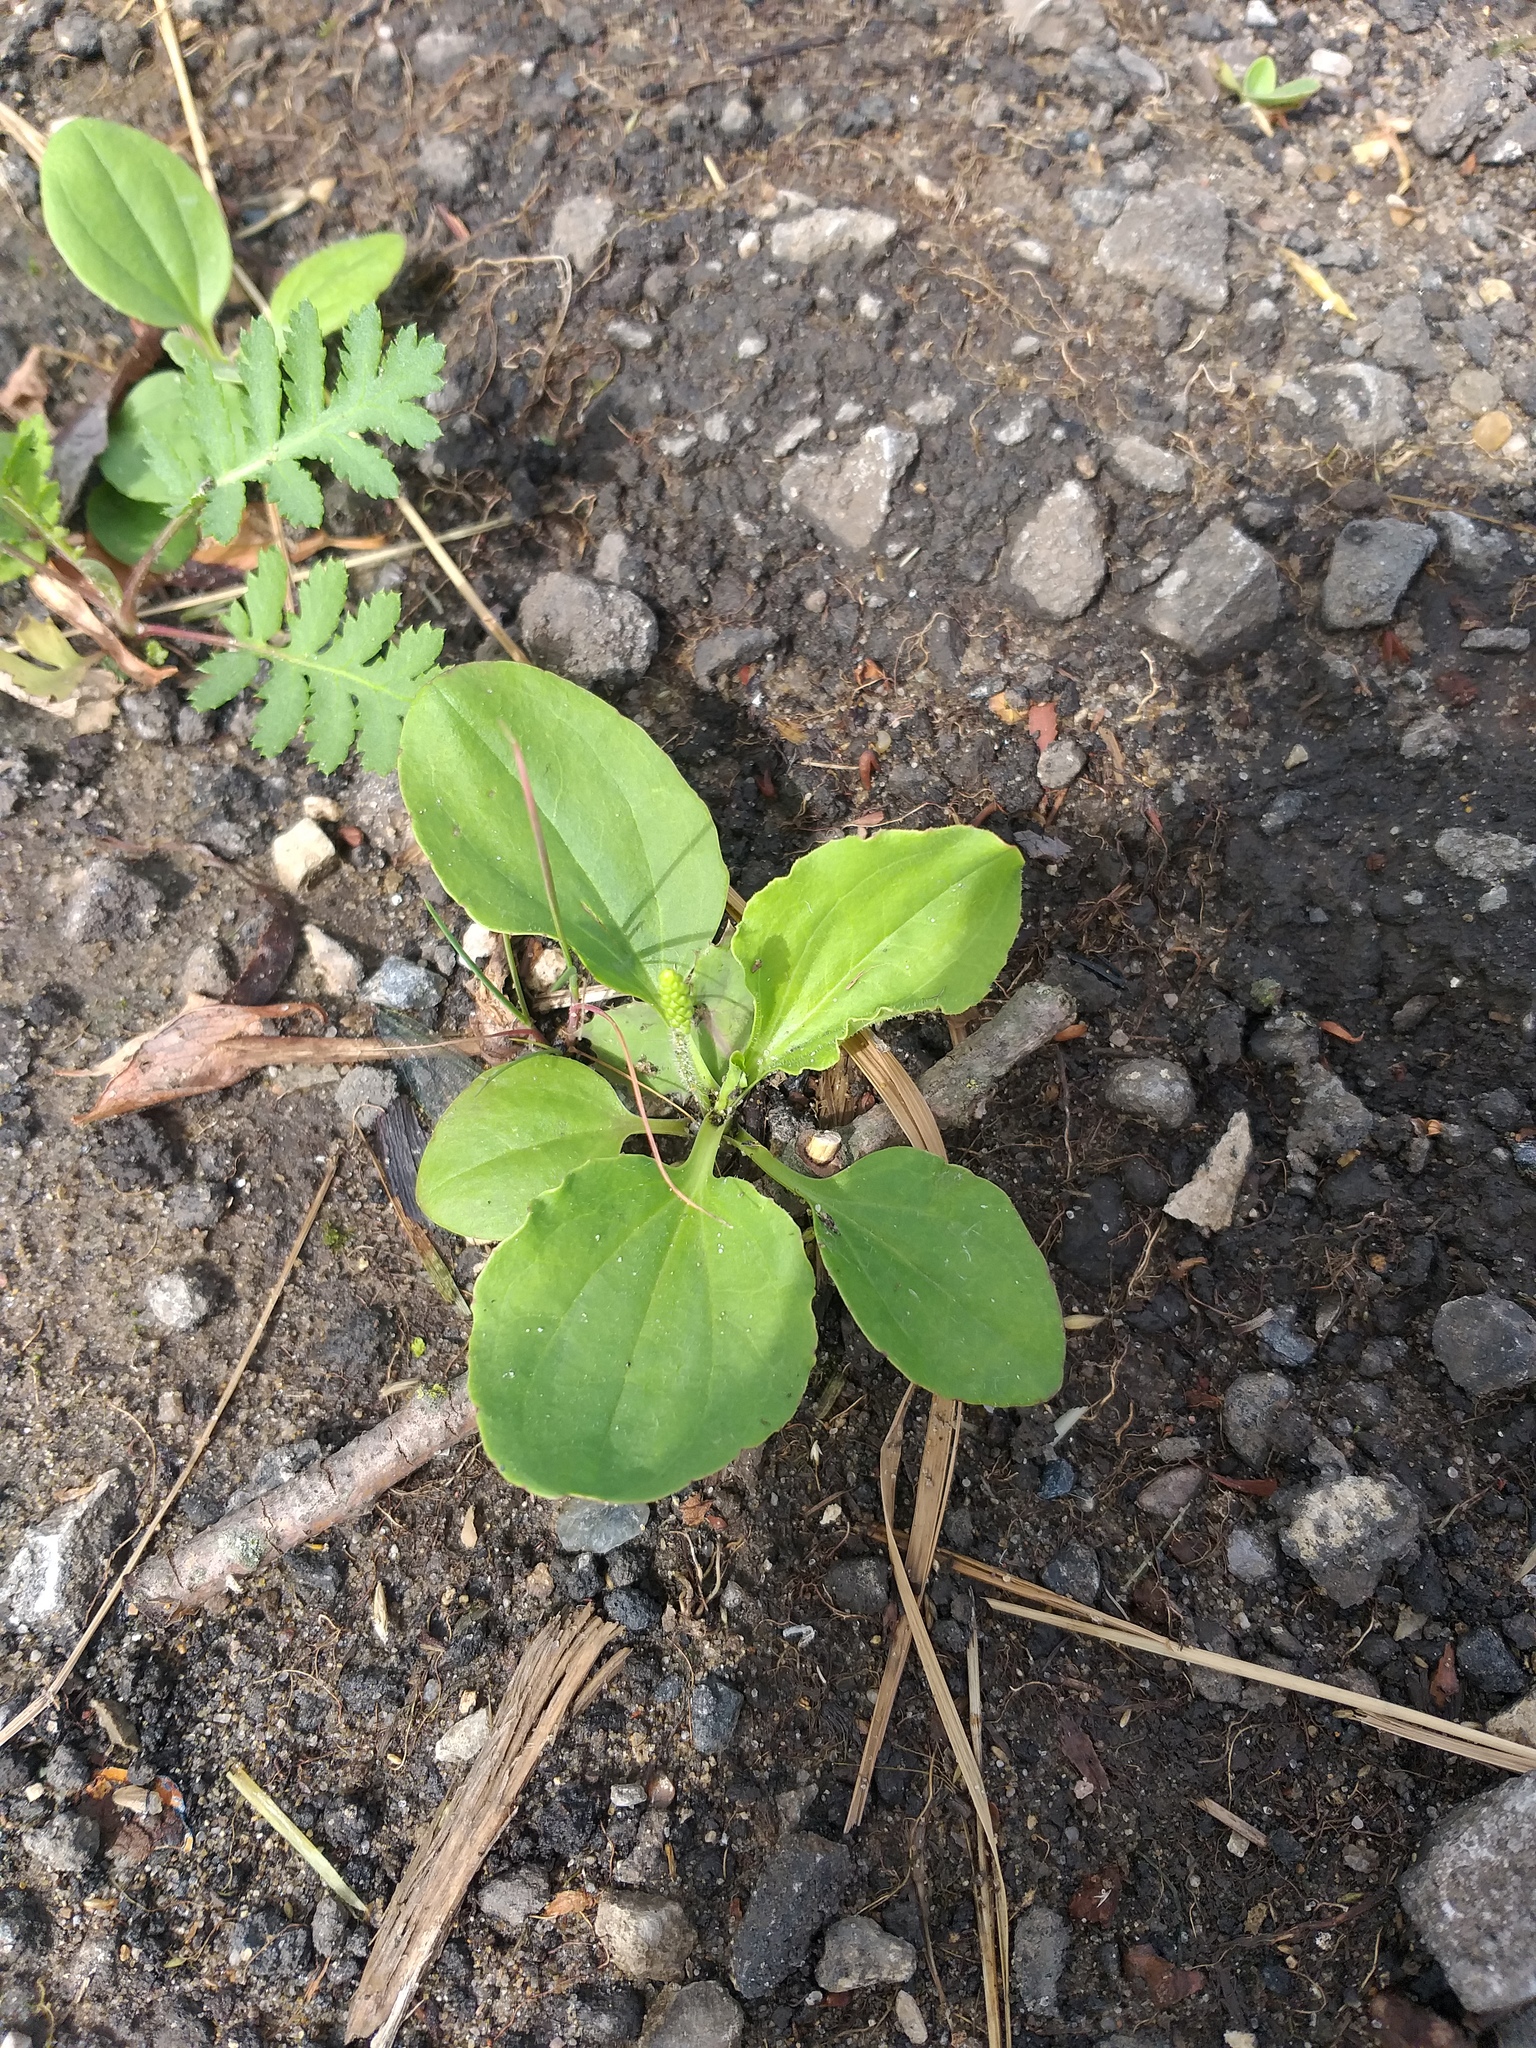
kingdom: Plantae
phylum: Tracheophyta
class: Magnoliopsida
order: Lamiales
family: Plantaginaceae
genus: Plantago
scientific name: Plantago uliginosa
